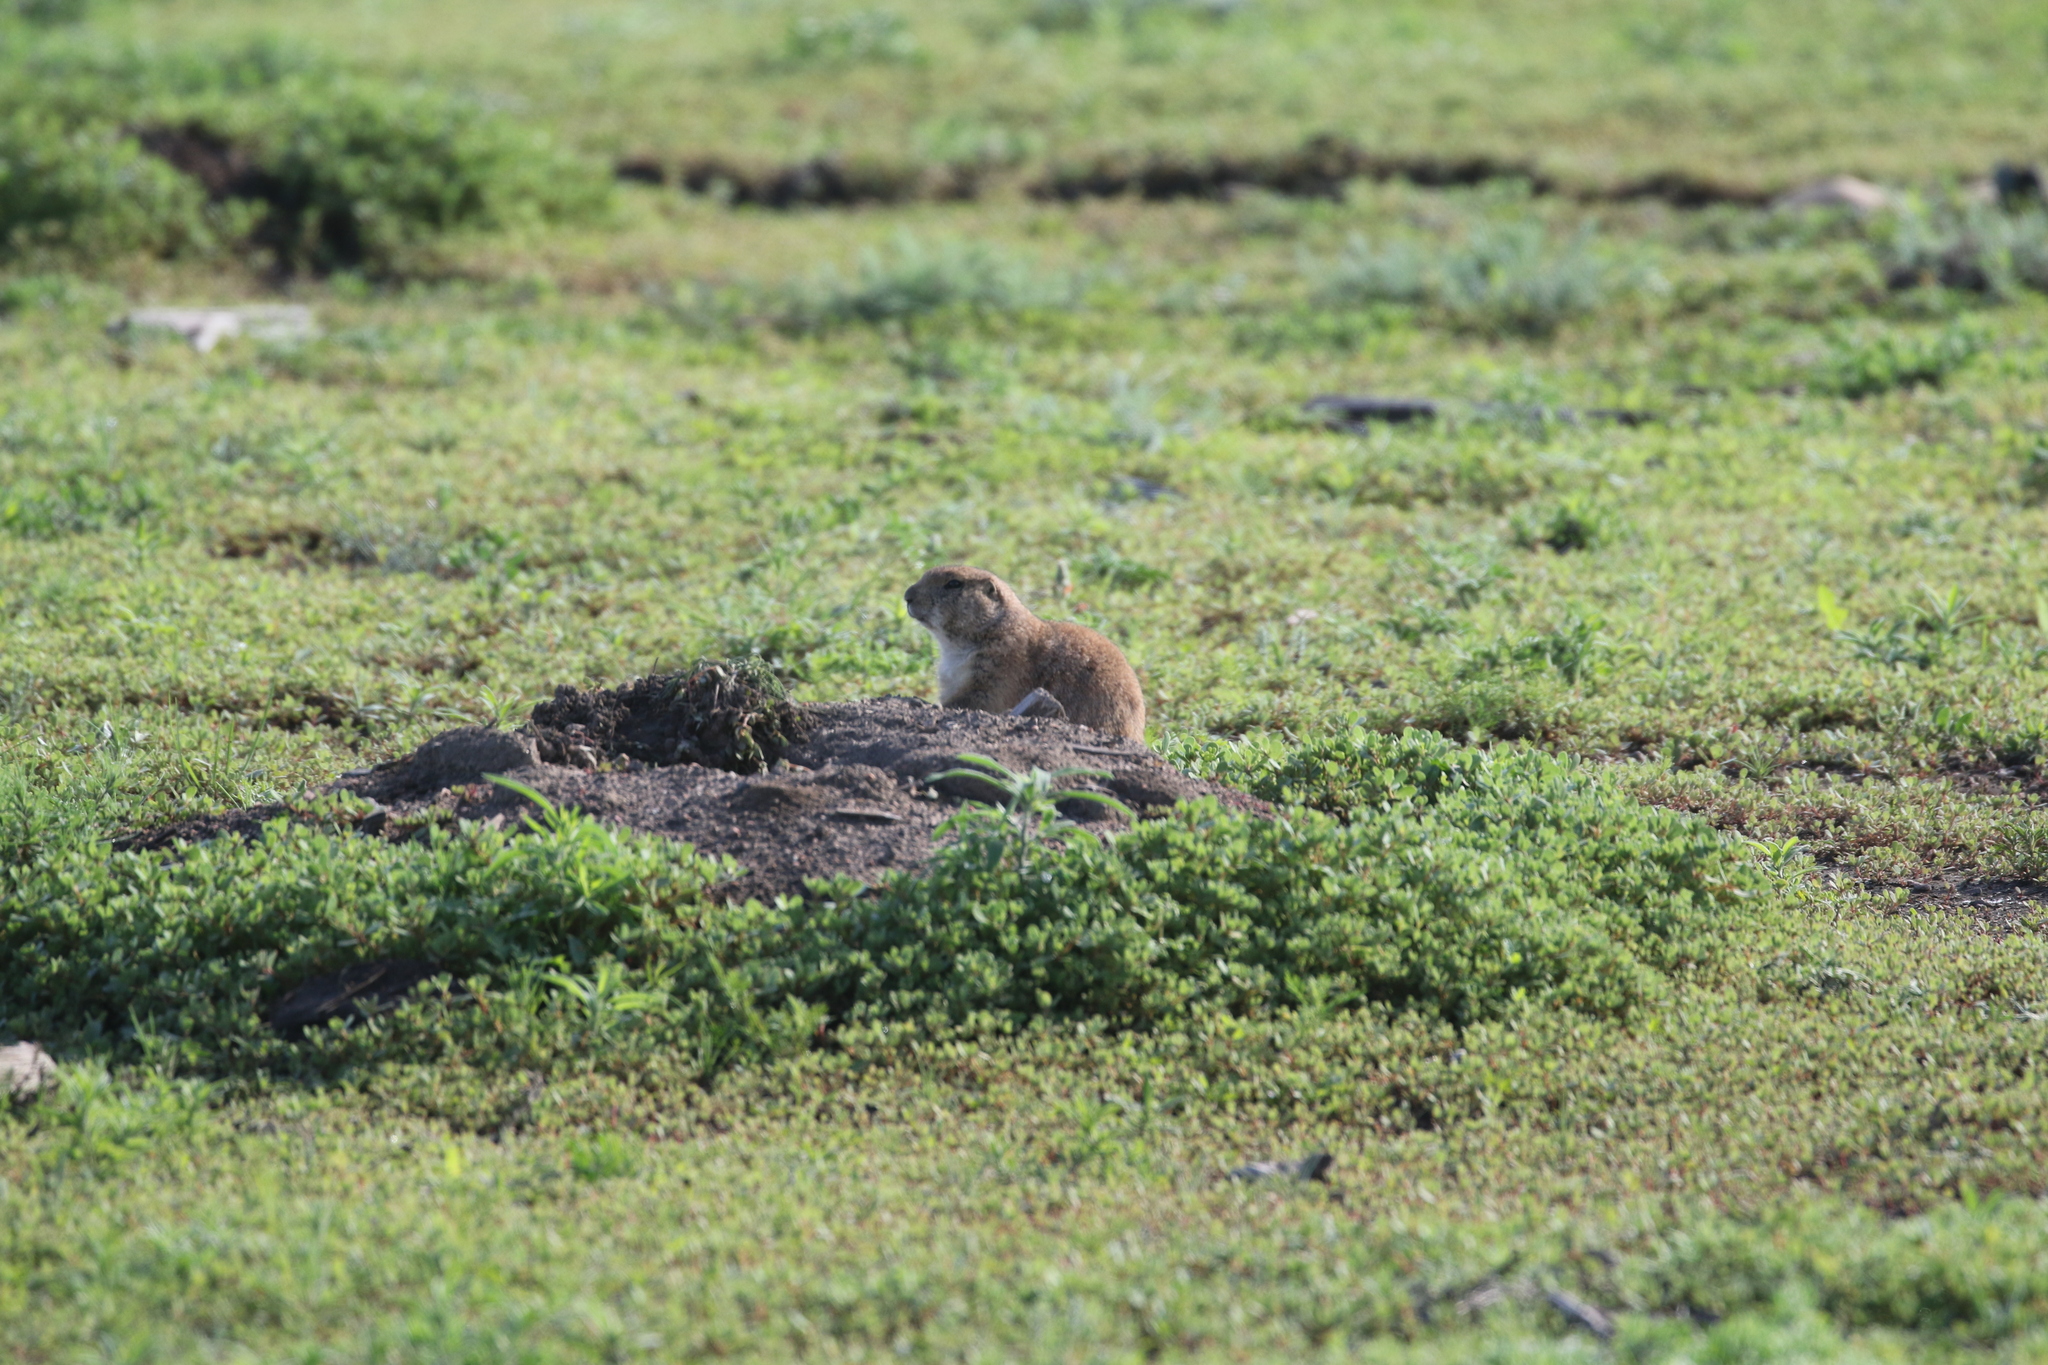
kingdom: Animalia
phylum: Chordata
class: Mammalia
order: Rodentia
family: Sciuridae
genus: Cynomys
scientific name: Cynomys ludovicianus
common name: Black-tailed prairie dog
